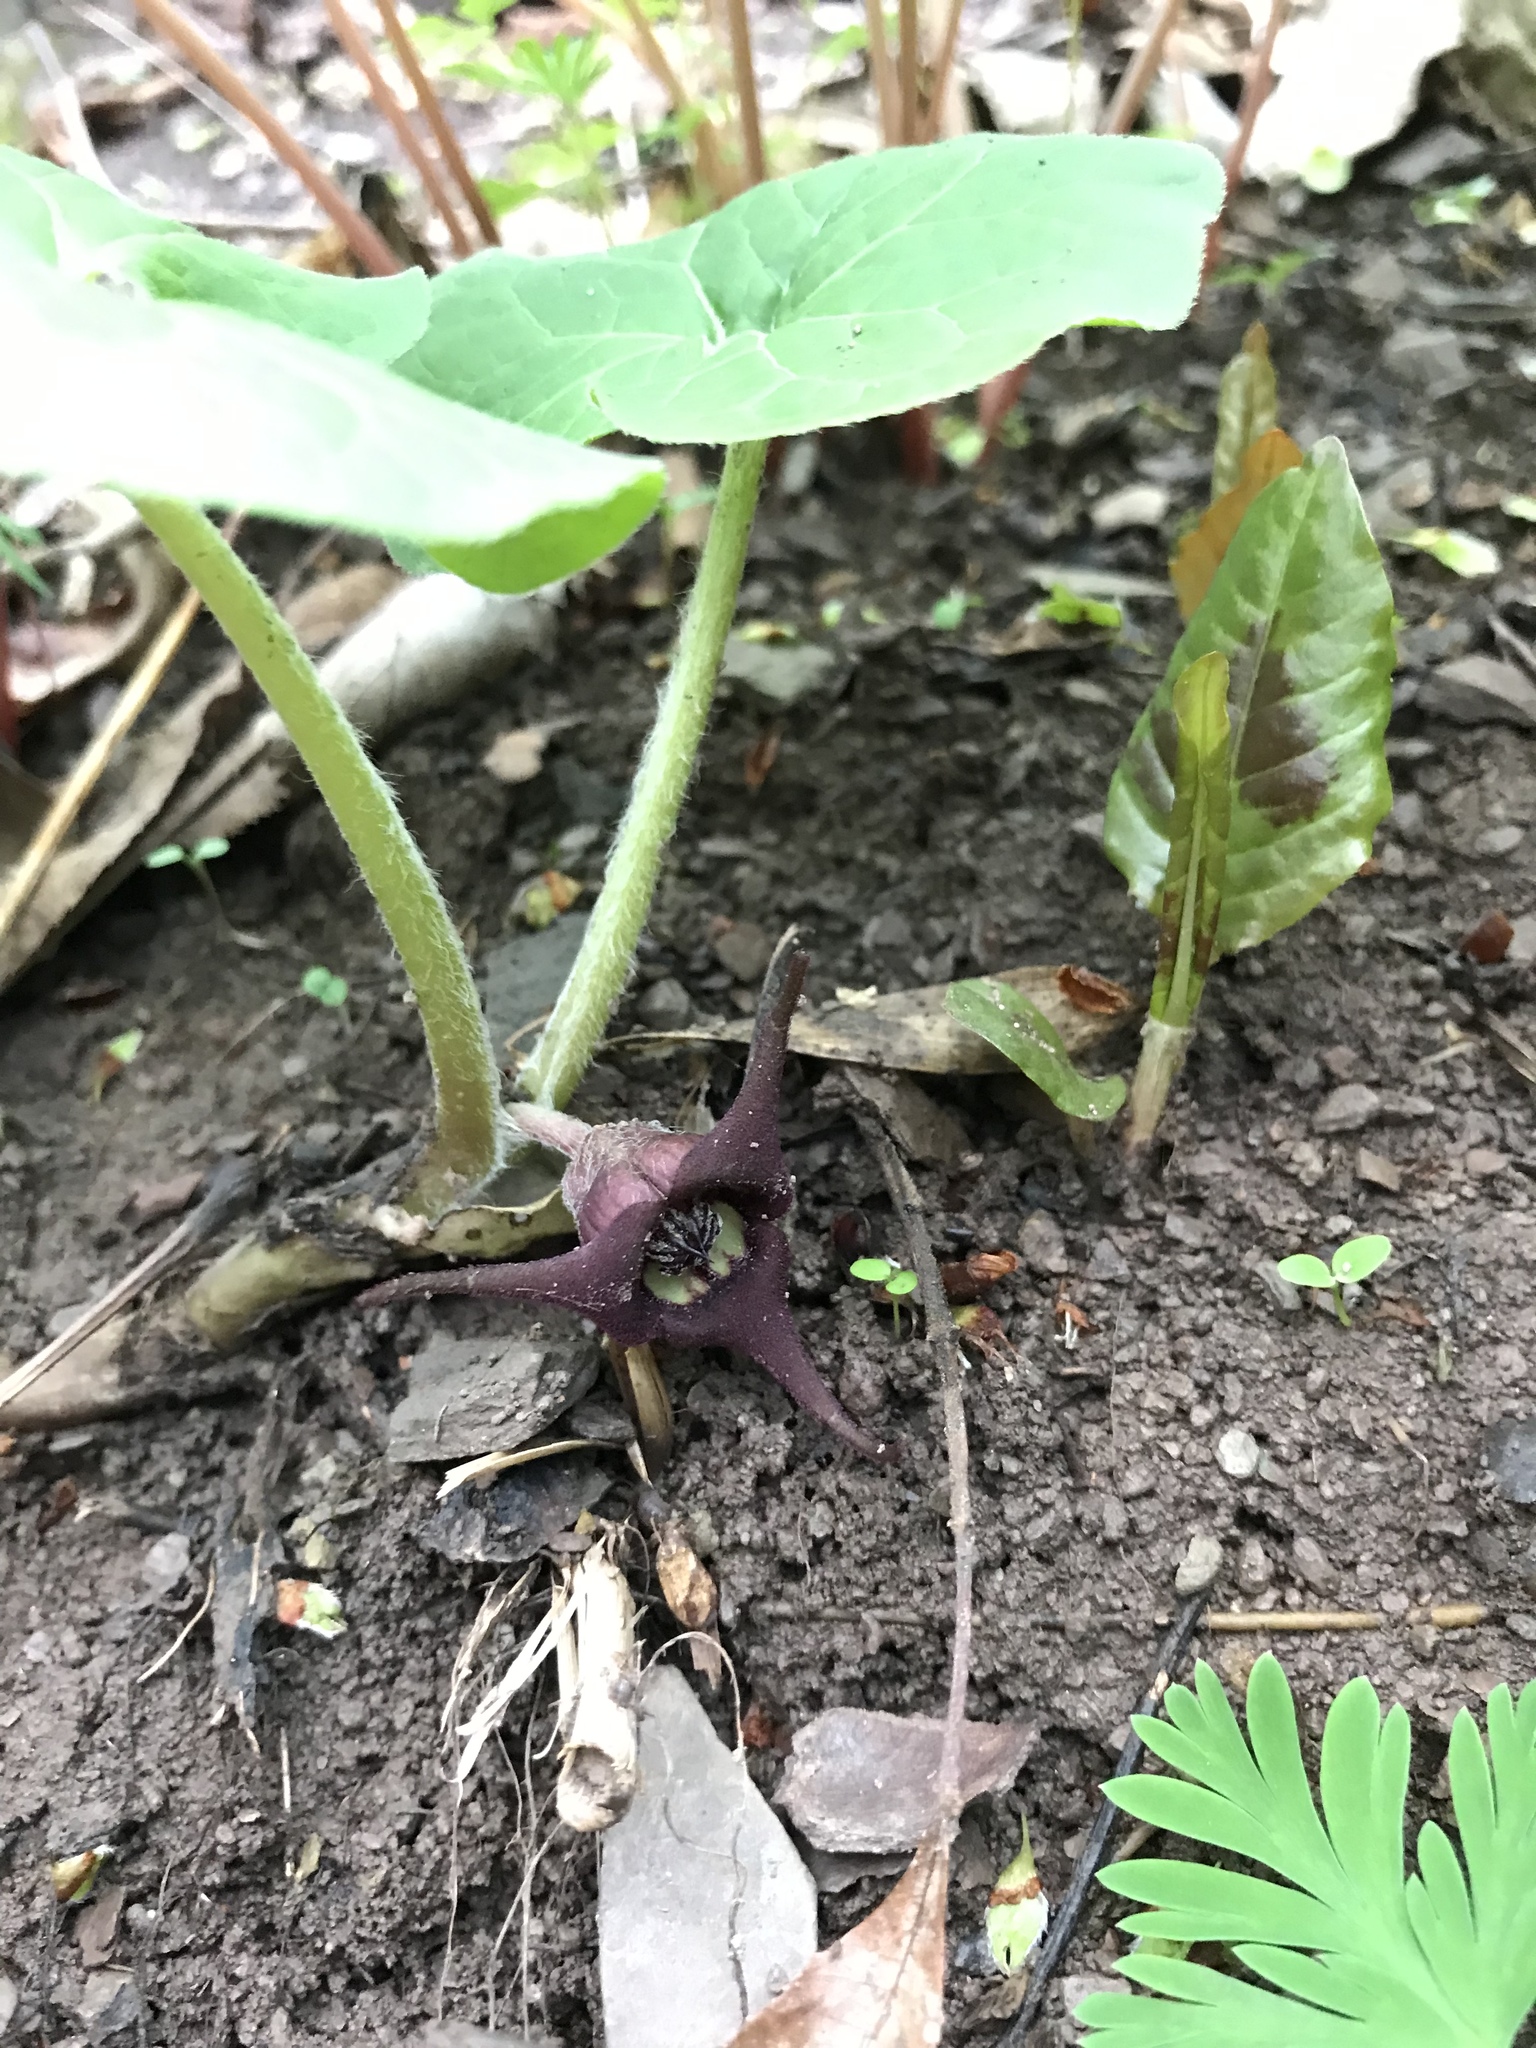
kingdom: Plantae
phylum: Tracheophyta
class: Magnoliopsida
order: Piperales
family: Aristolochiaceae
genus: Asarum
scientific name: Asarum canadense
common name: Wild ginger
